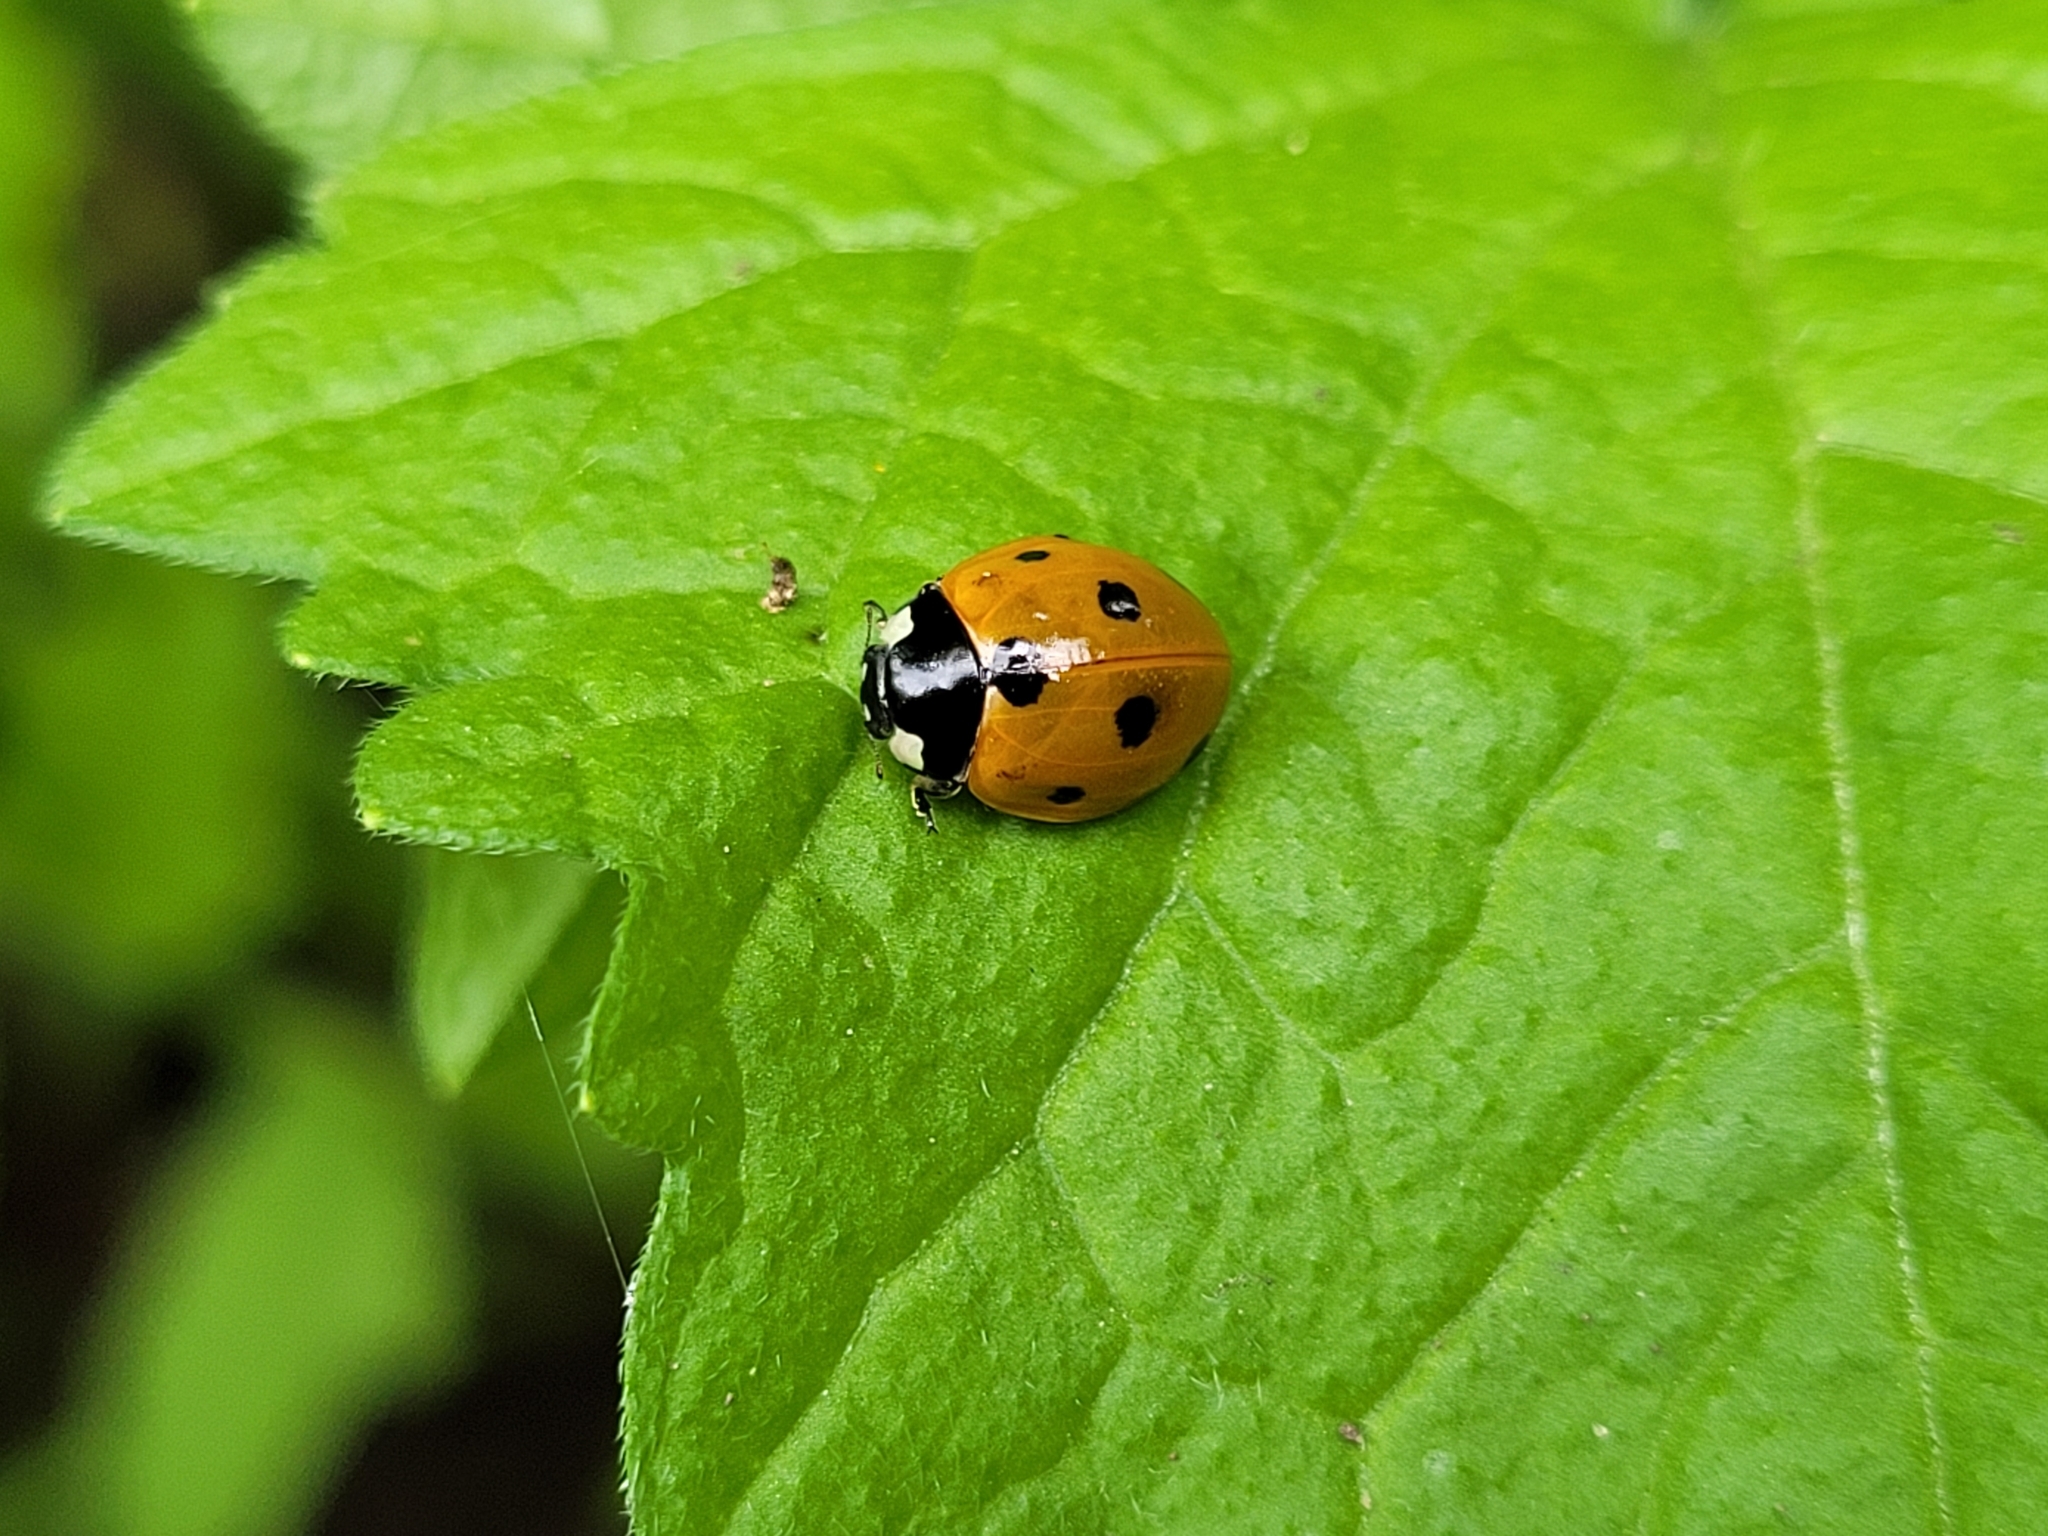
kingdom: Animalia
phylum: Arthropoda
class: Insecta
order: Coleoptera
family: Coccinellidae
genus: Coccinella
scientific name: Coccinella septempunctata
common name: Sevenspotted lady beetle
